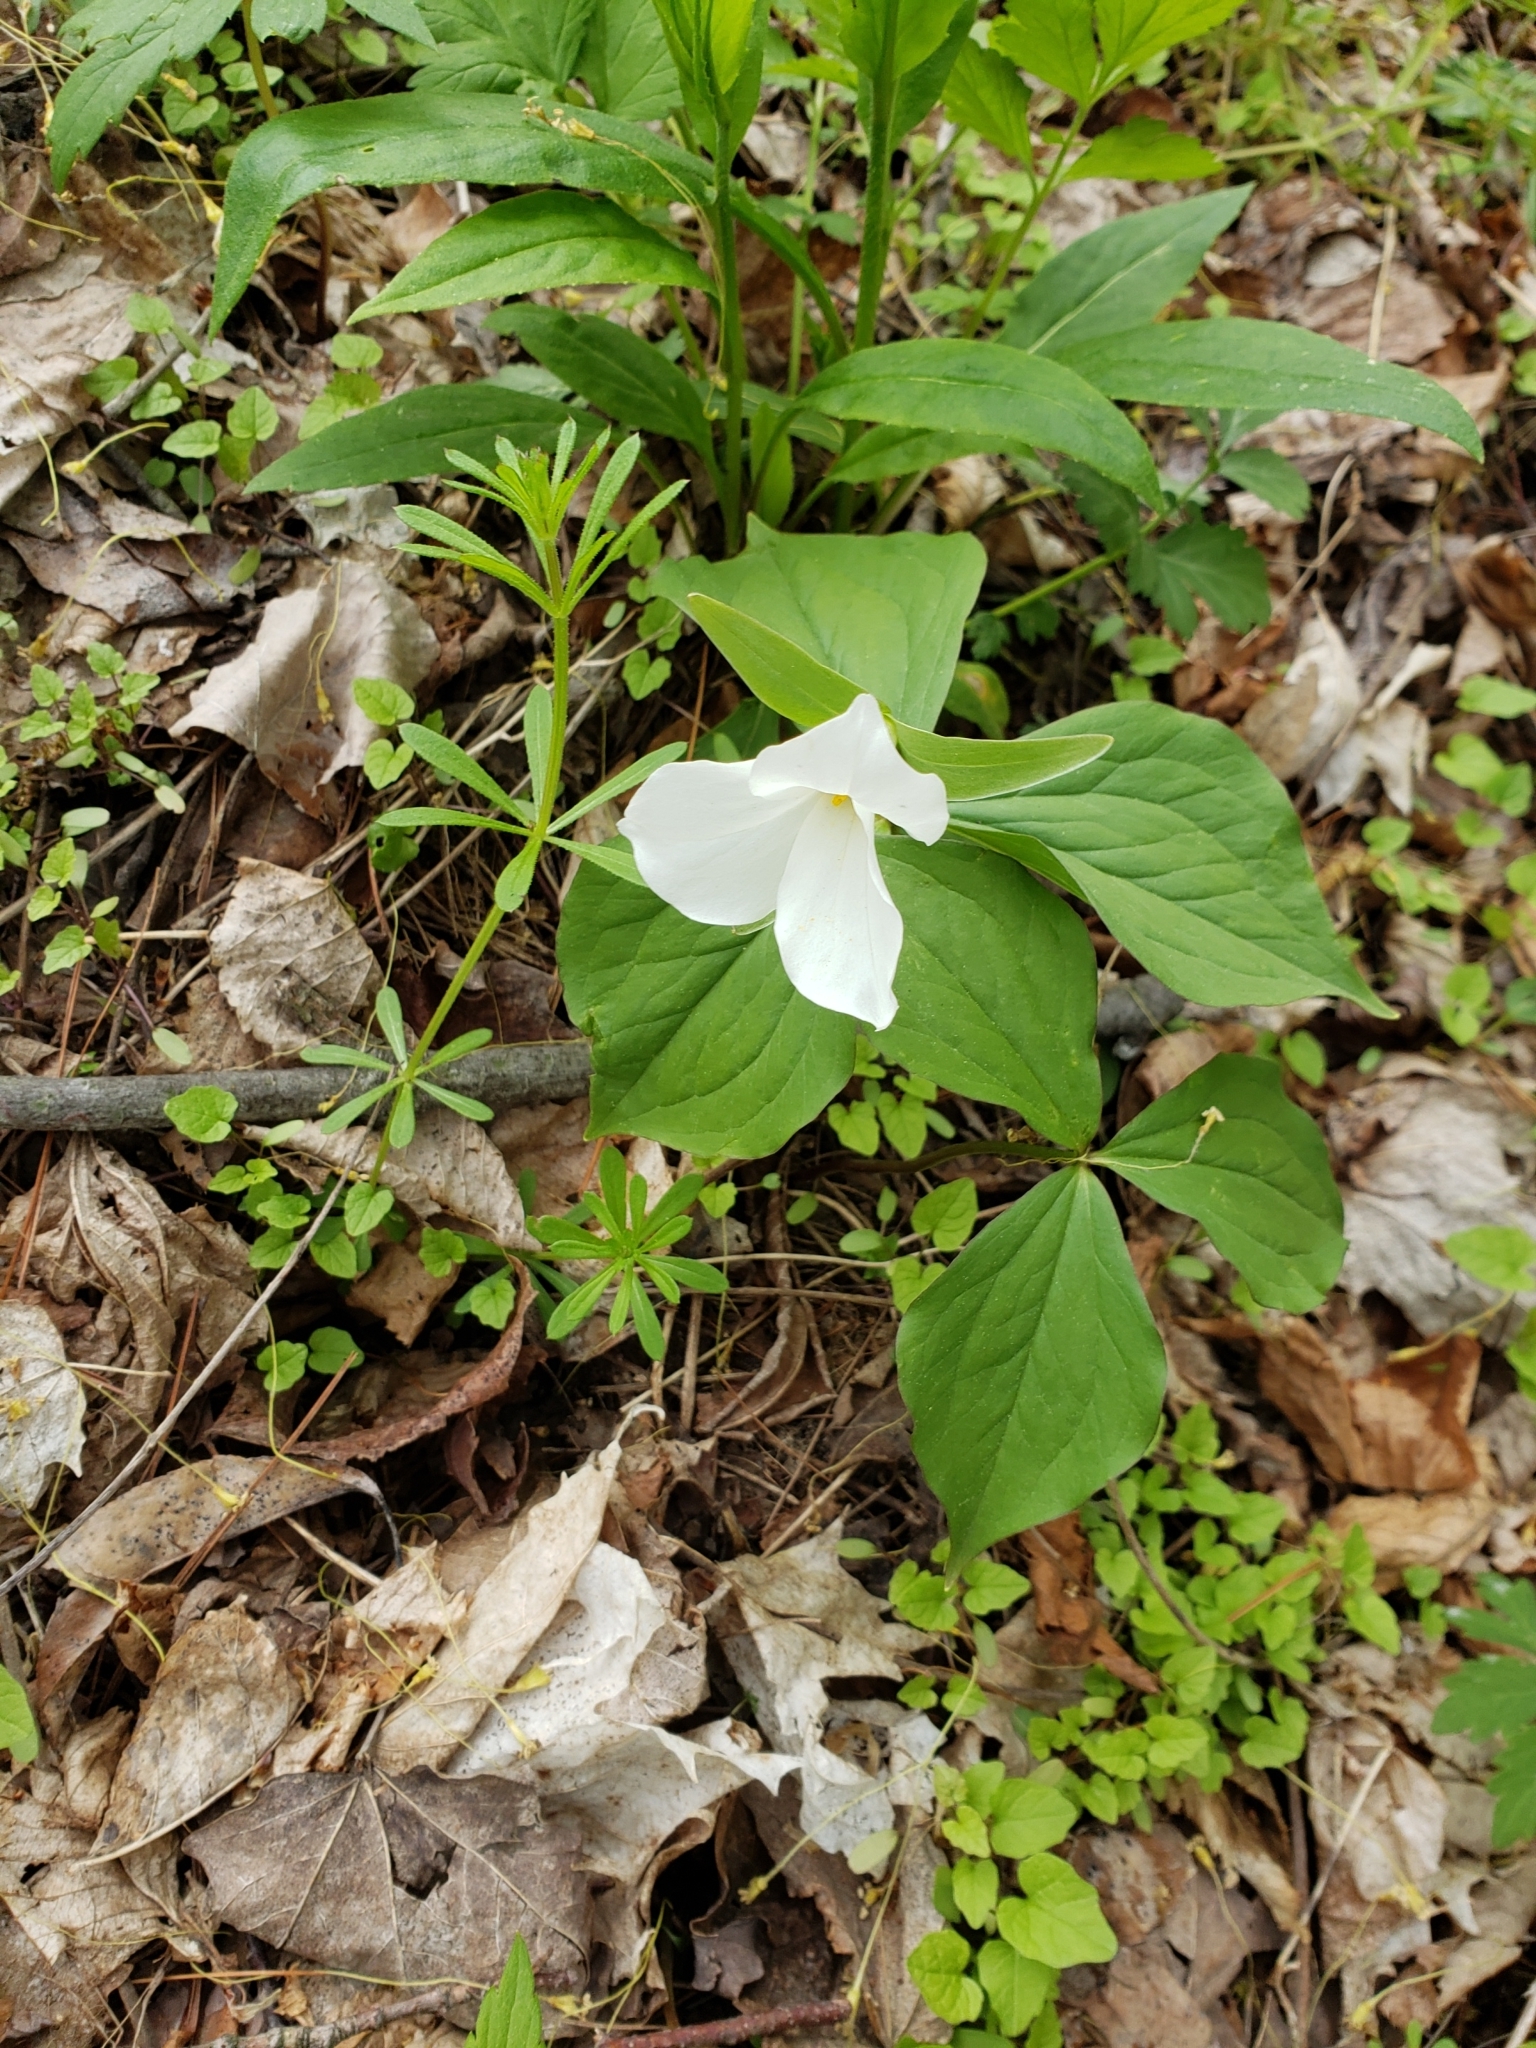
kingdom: Plantae
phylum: Tracheophyta
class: Liliopsida
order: Liliales
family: Melanthiaceae
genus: Trillium
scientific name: Trillium grandiflorum
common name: Great white trillium
